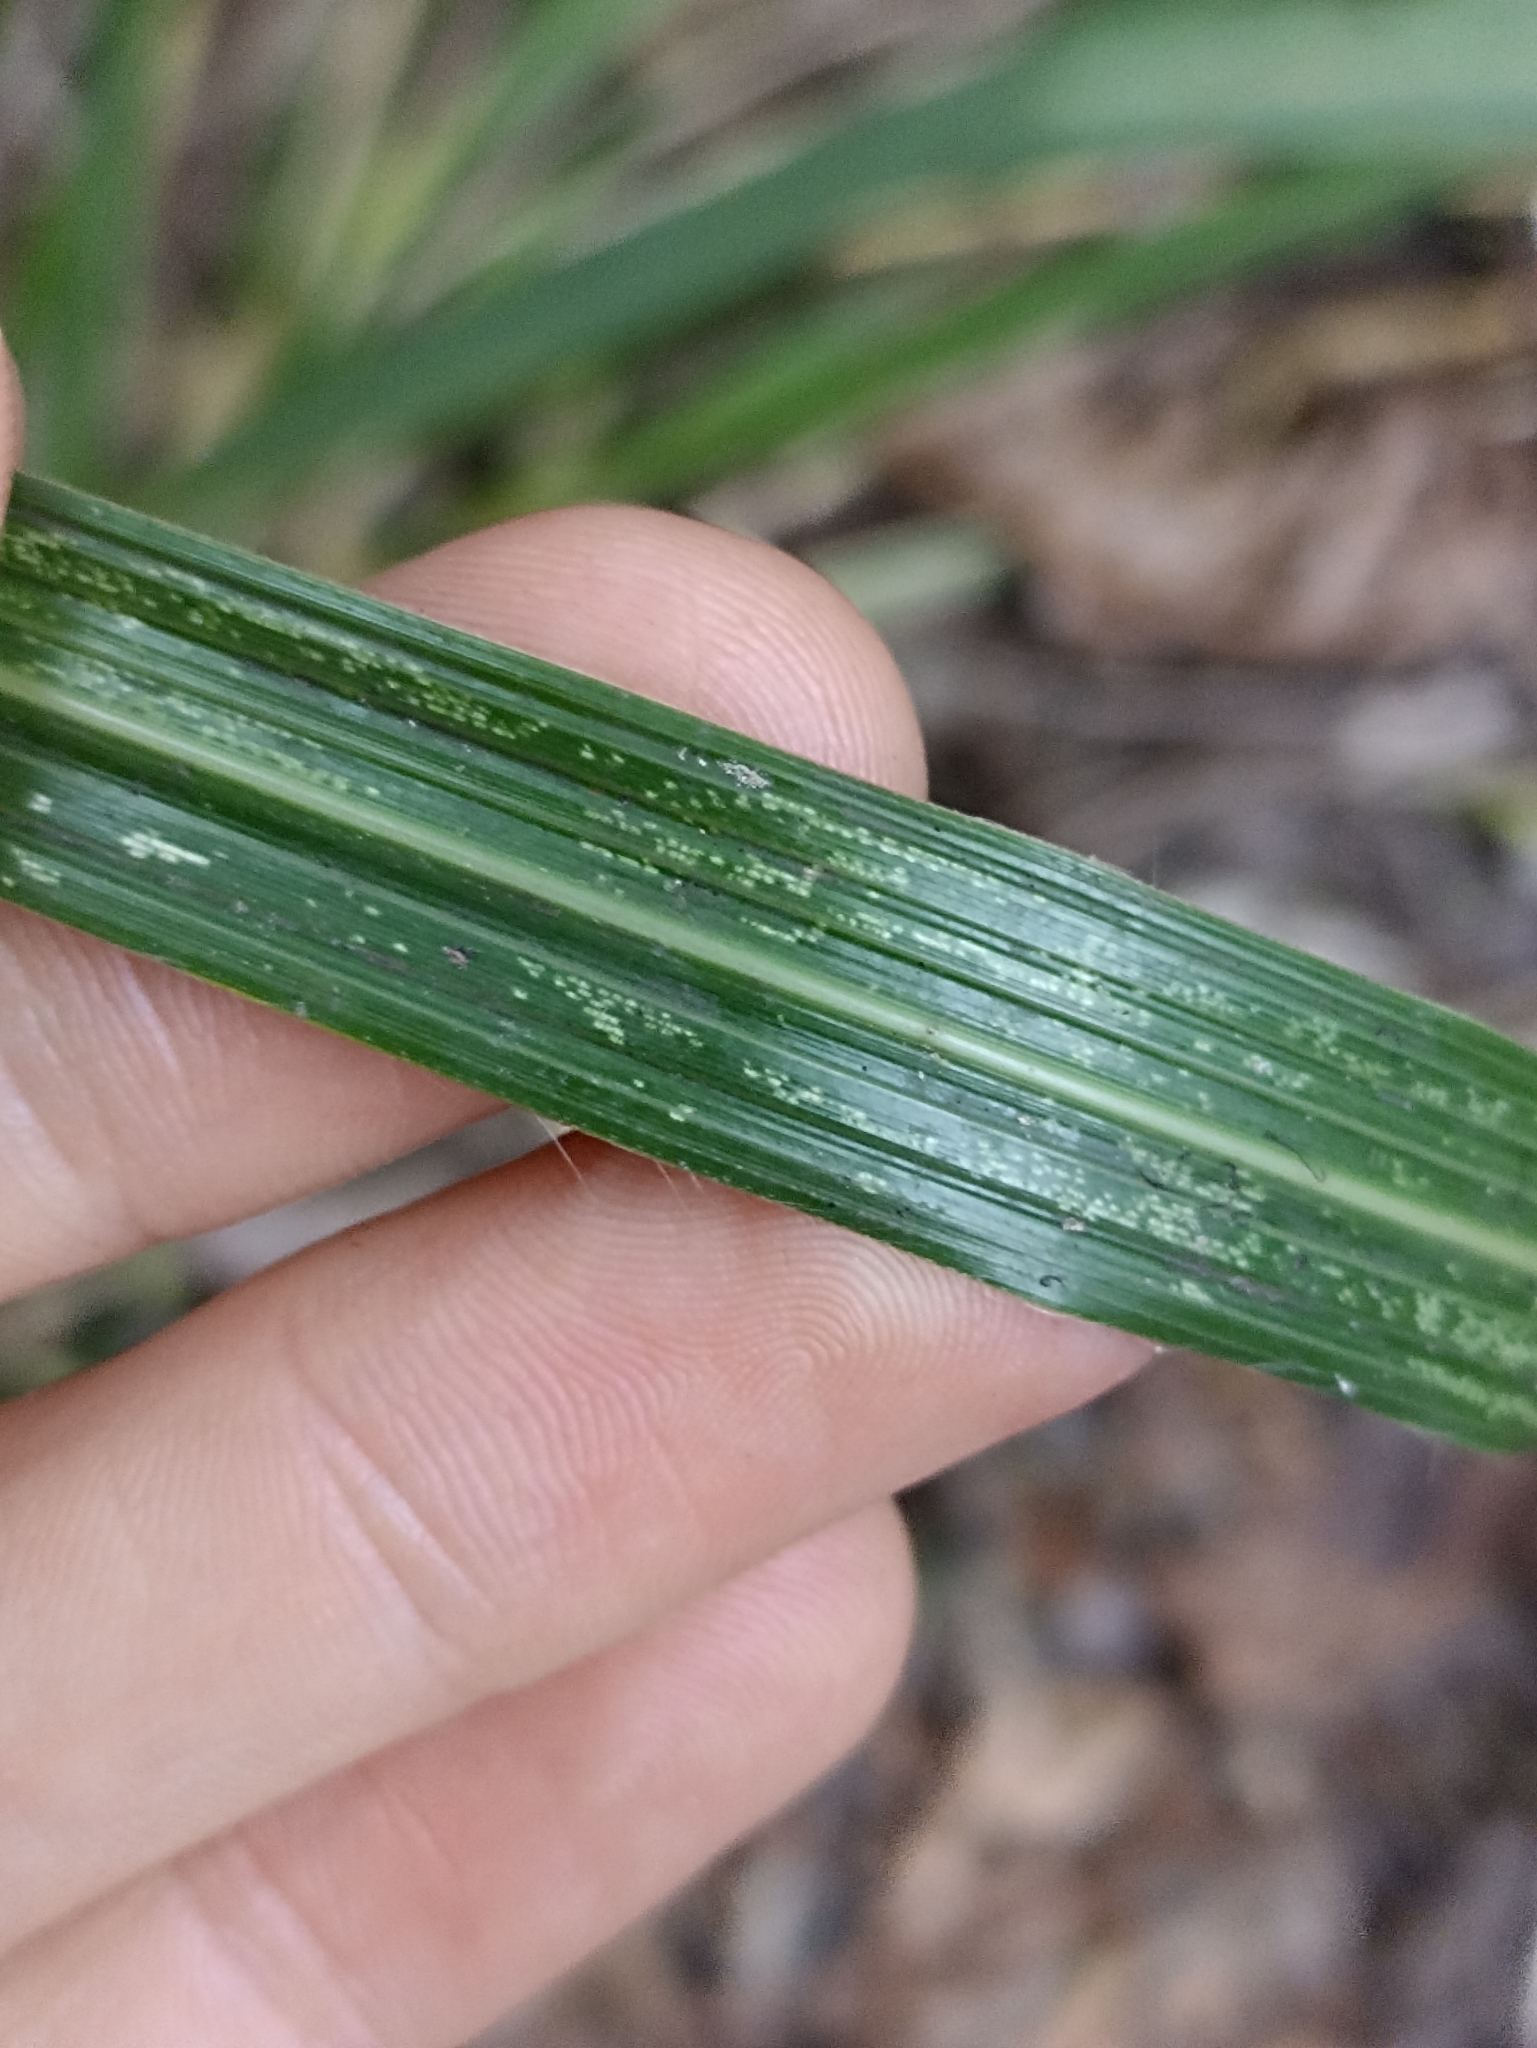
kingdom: Plantae
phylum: Tracheophyta
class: Liliopsida
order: Poales
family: Poaceae
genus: Austroderia
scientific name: Austroderia fulvida
